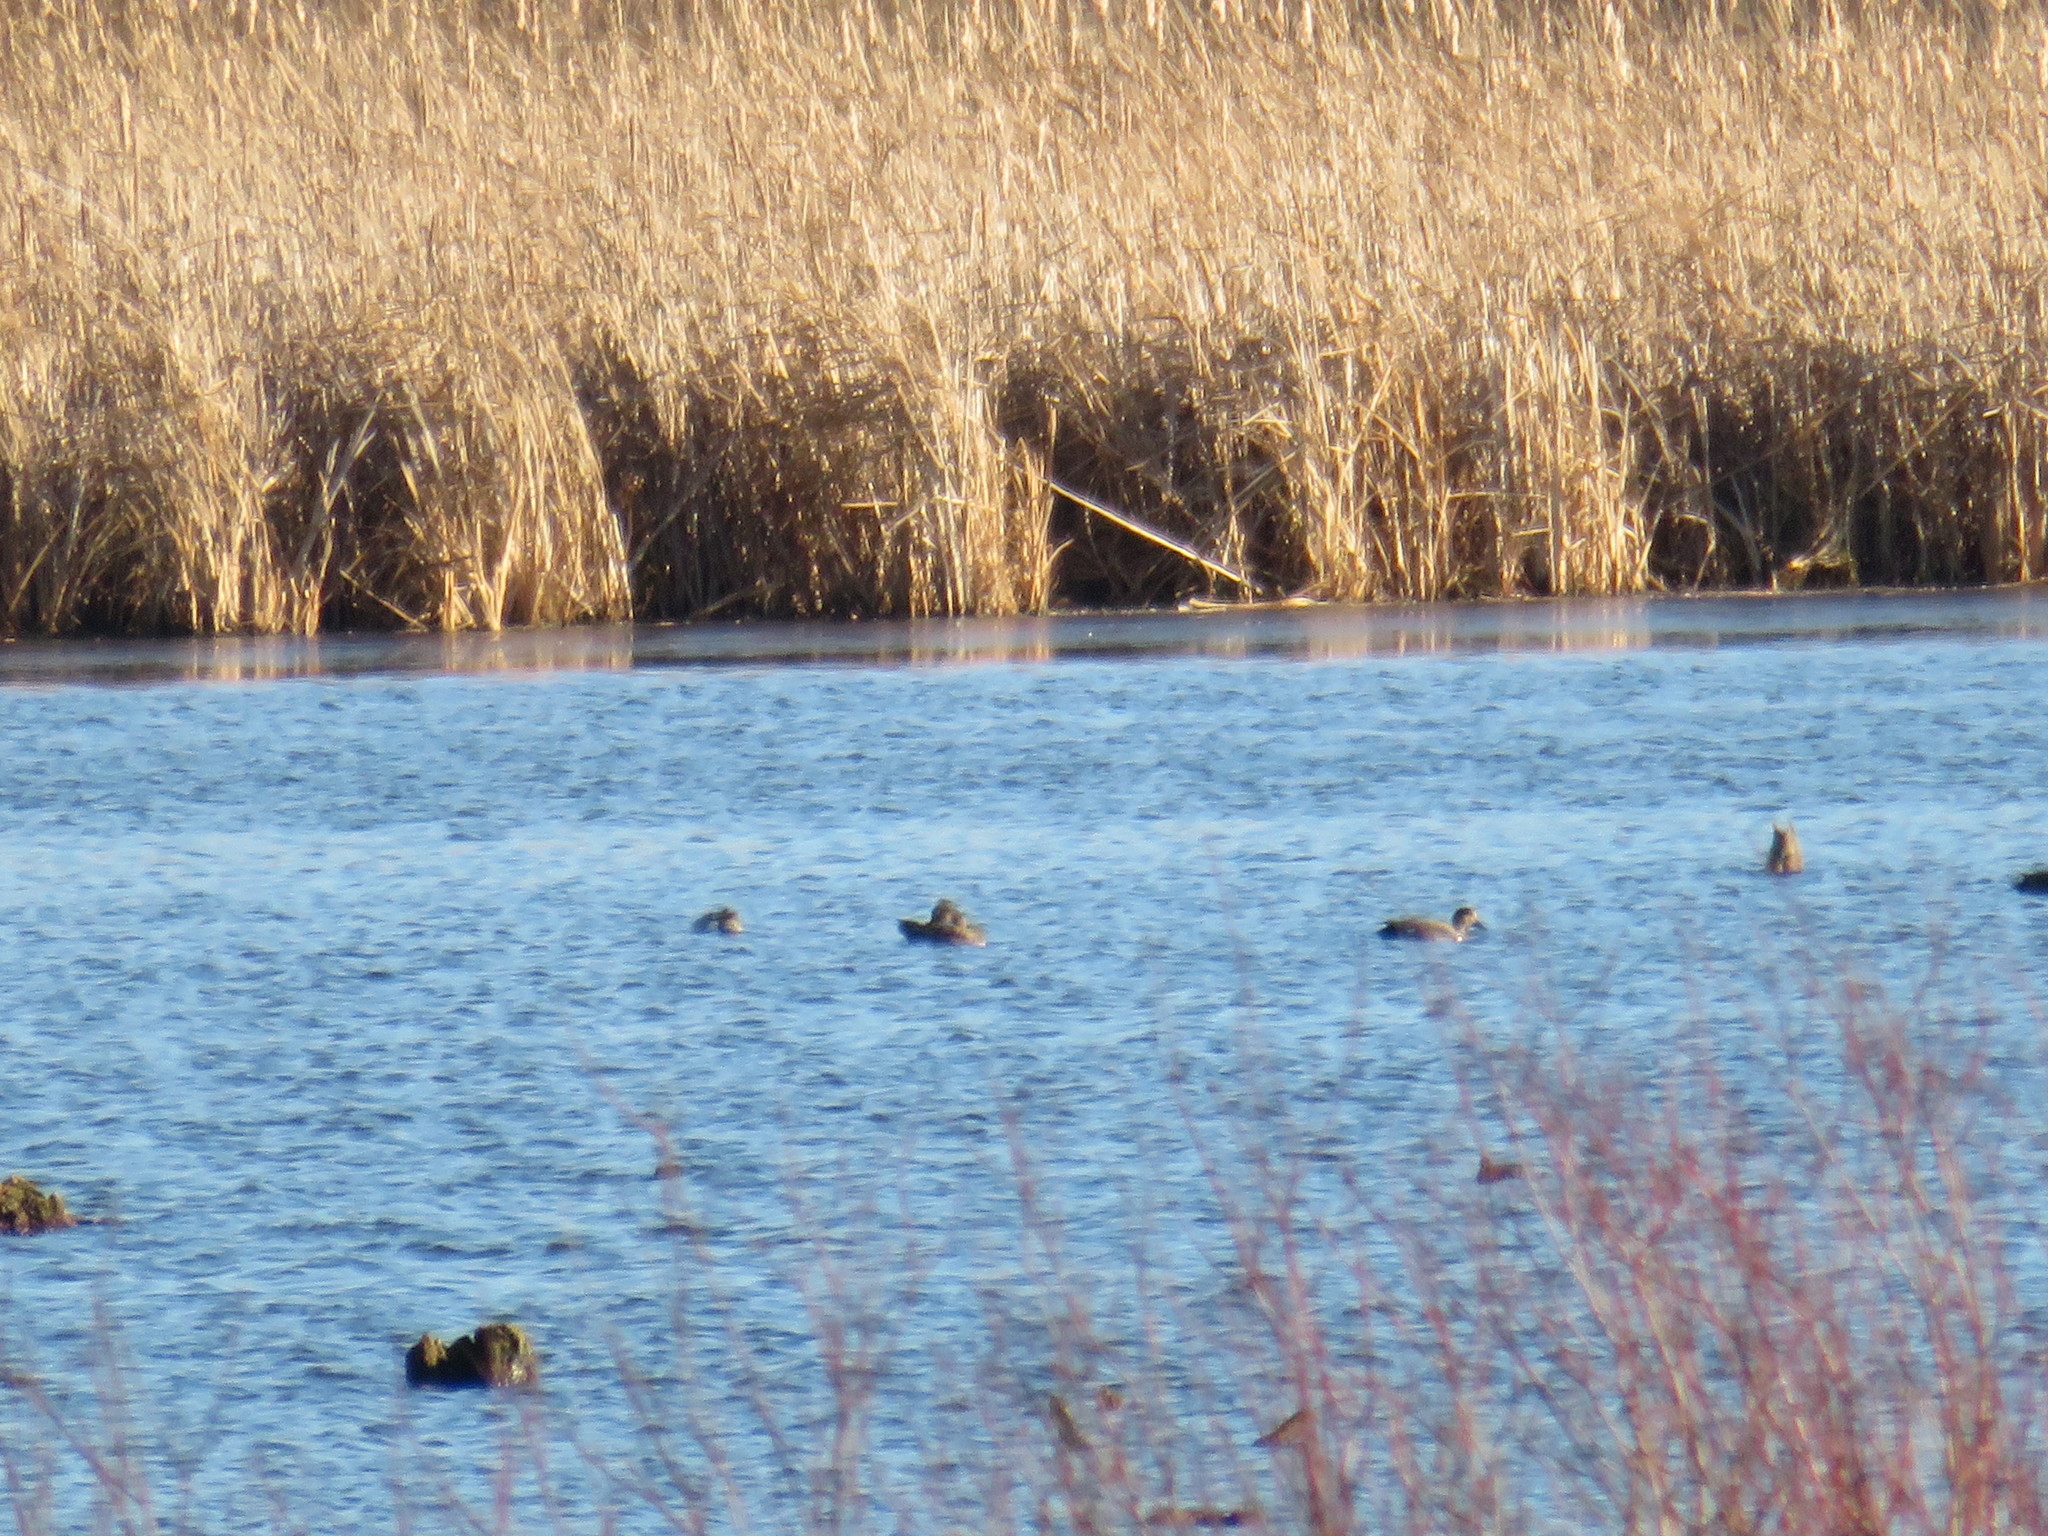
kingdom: Animalia
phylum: Chordata
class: Aves
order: Anseriformes
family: Anatidae
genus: Mareca
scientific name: Mareca strepera
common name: Gadwall
